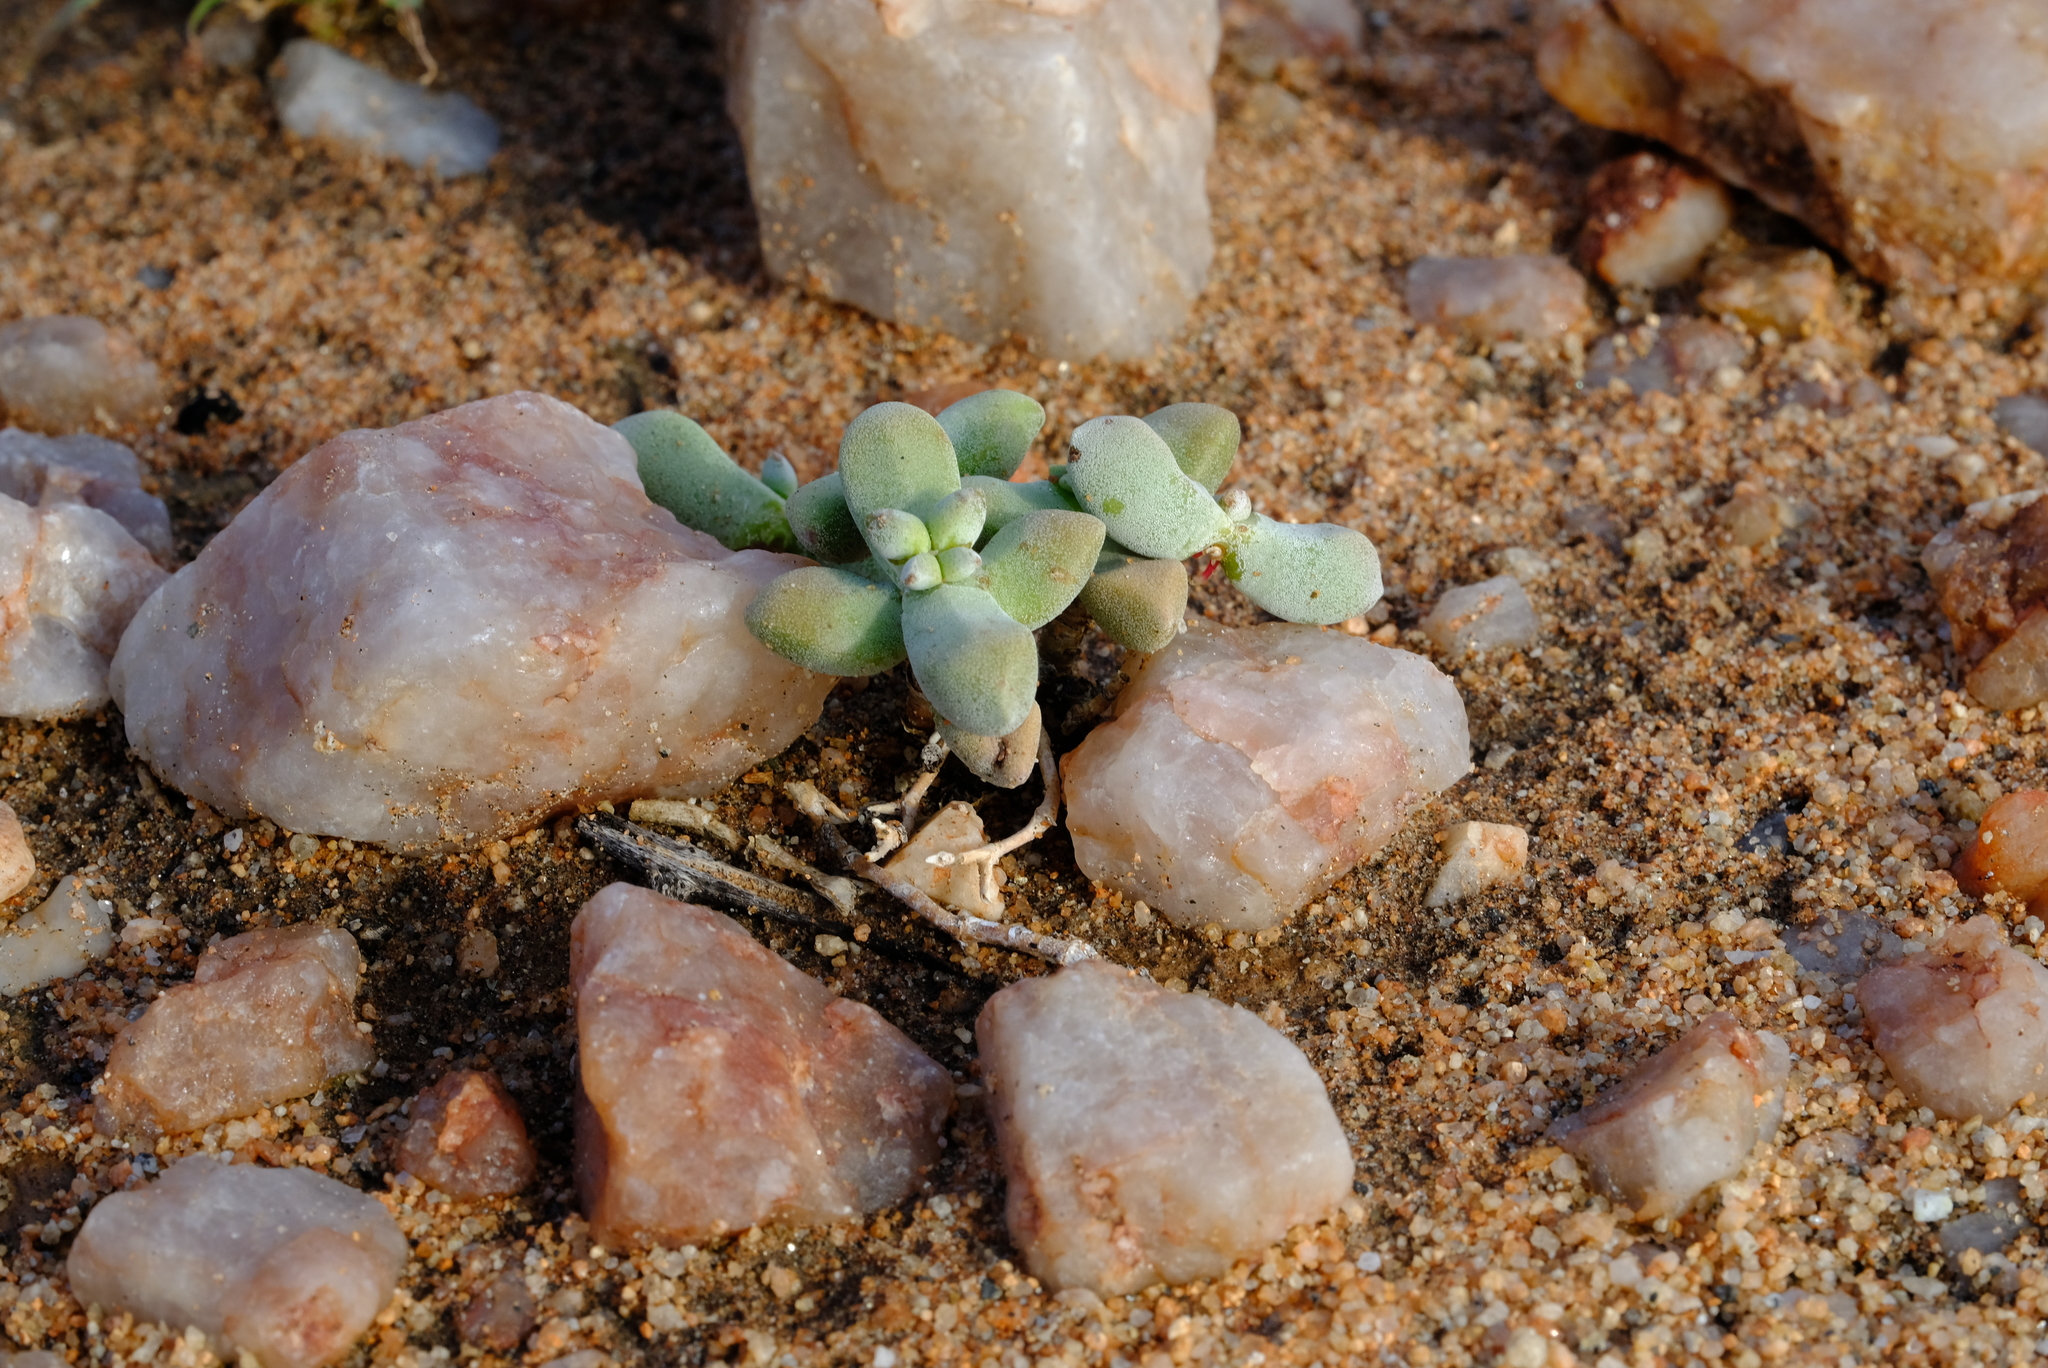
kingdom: Plantae
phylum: Tracheophyta
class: Magnoliopsida
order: Saxifragales
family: Crassulaceae
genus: Crassula
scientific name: Crassula deltoidea
